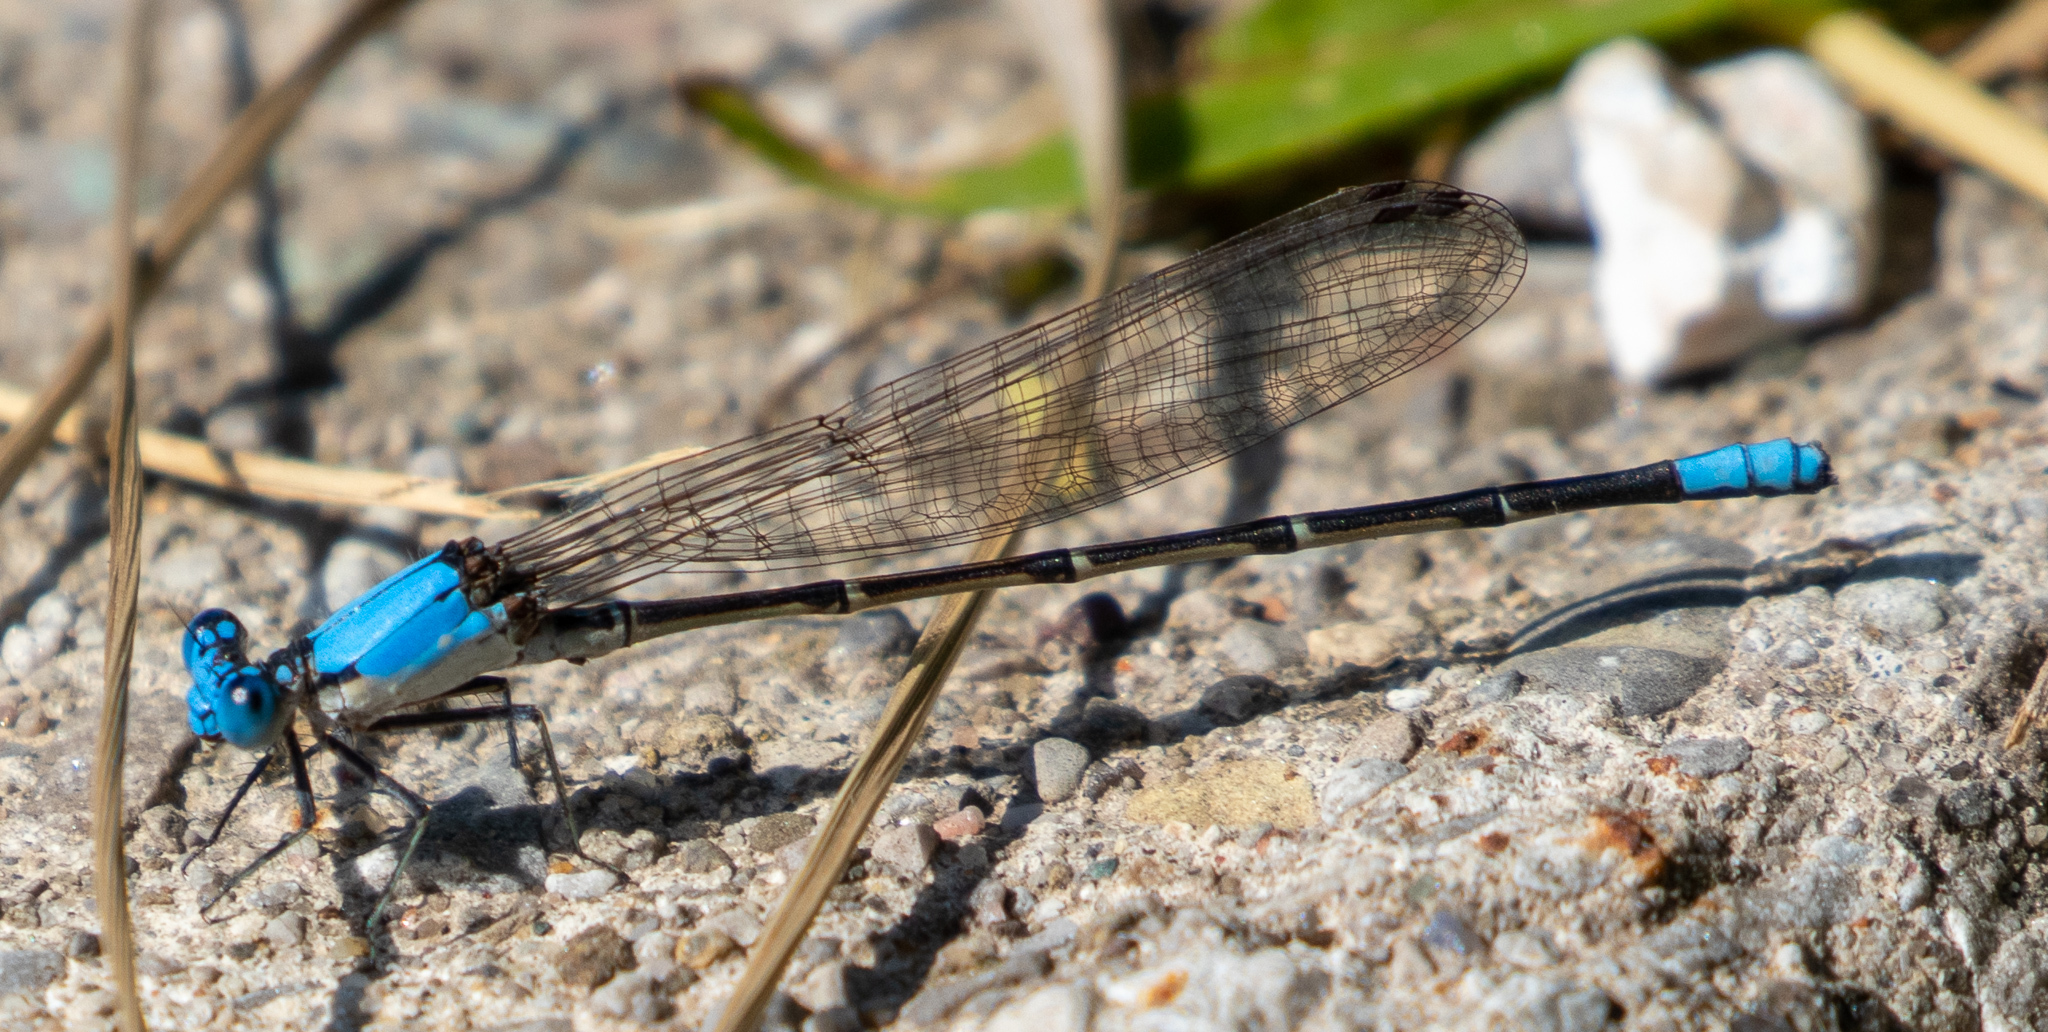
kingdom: Animalia
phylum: Arthropoda
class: Insecta
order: Odonata
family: Coenagrionidae
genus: Argia
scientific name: Argia apicalis
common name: Blue-fronted dancer
